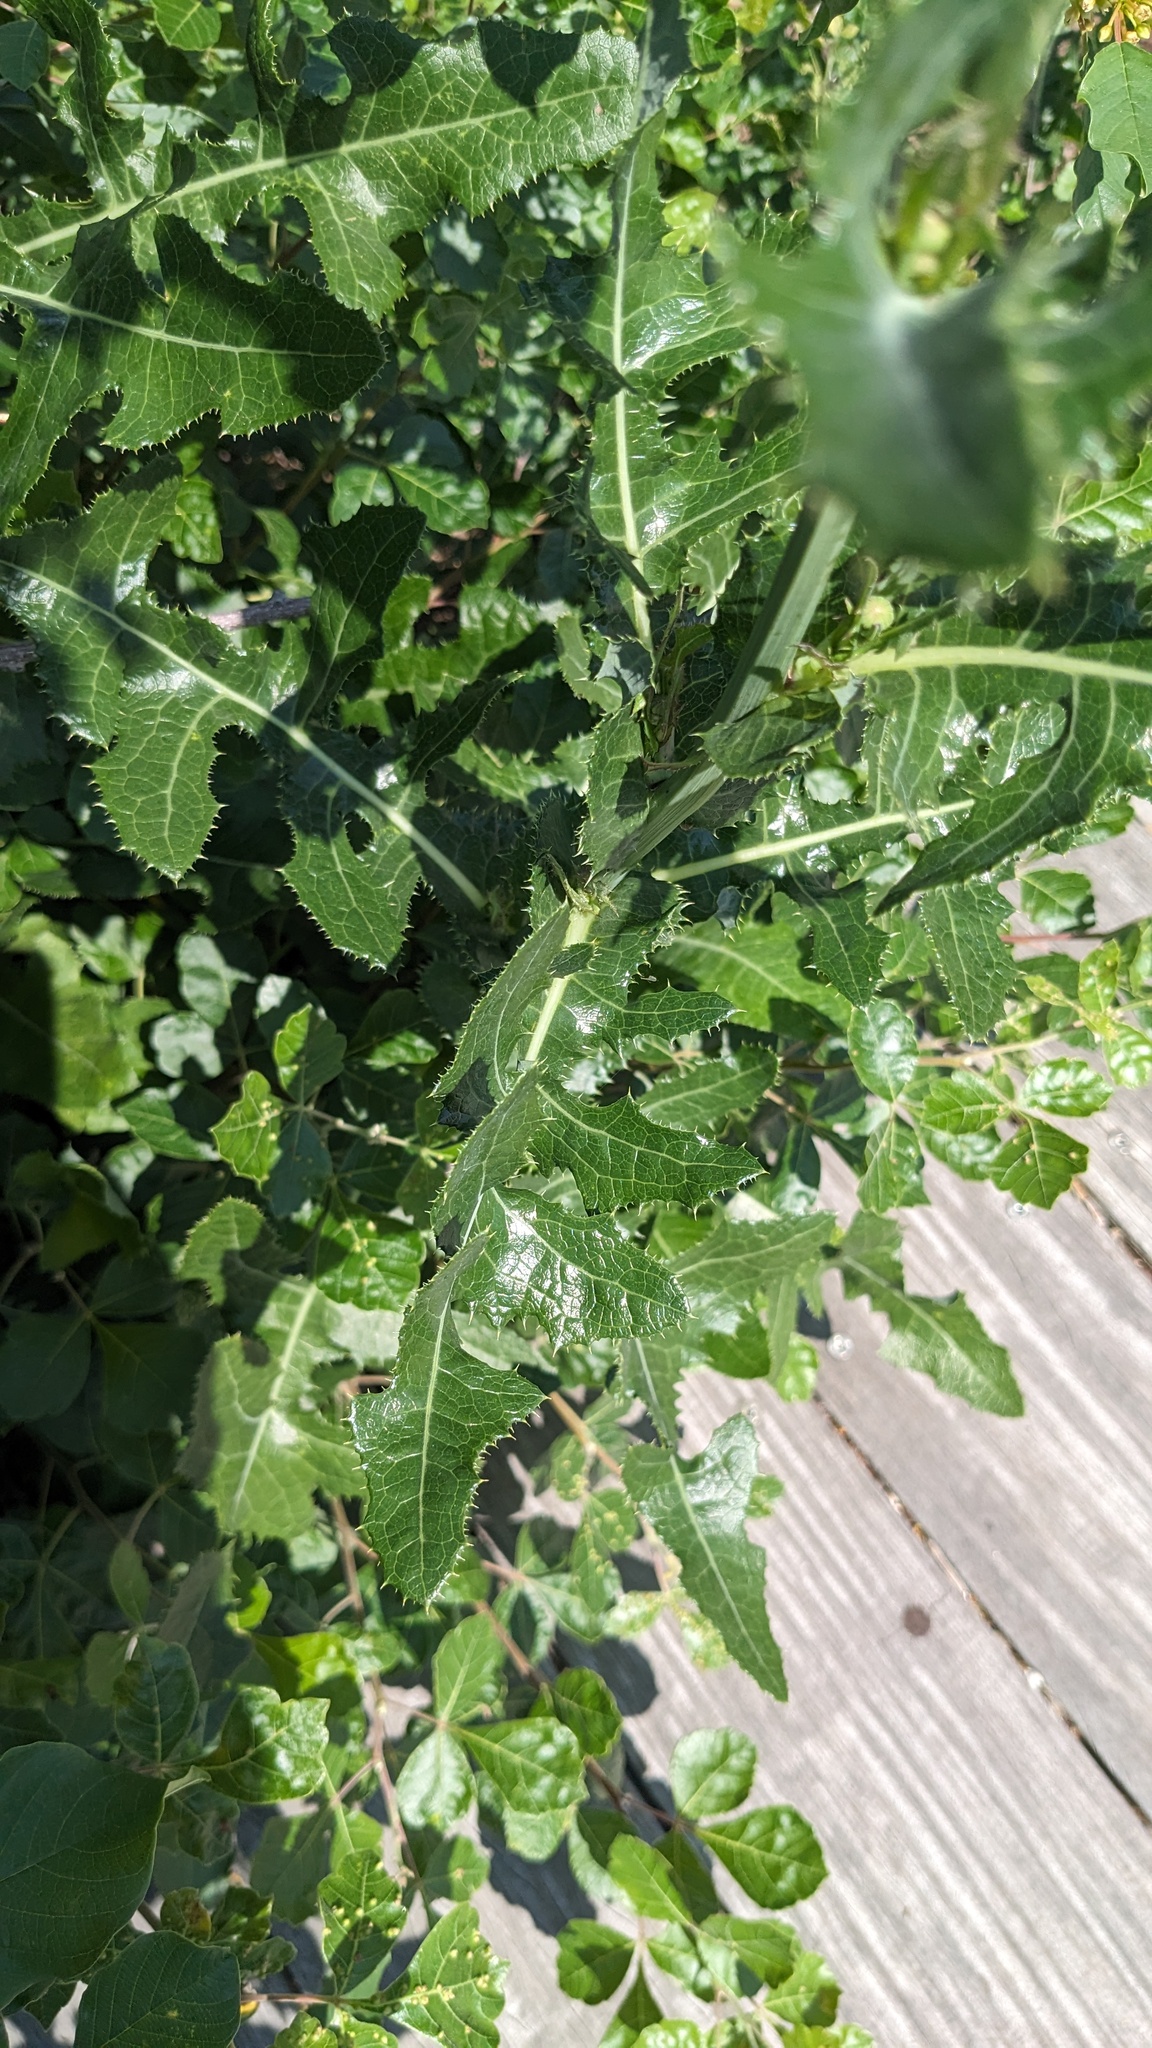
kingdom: Plantae
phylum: Tracheophyta
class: Magnoliopsida
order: Asterales
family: Asteraceae
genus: Sonchus
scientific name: Sonchus arvensis
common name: Perennial sow-thistle
